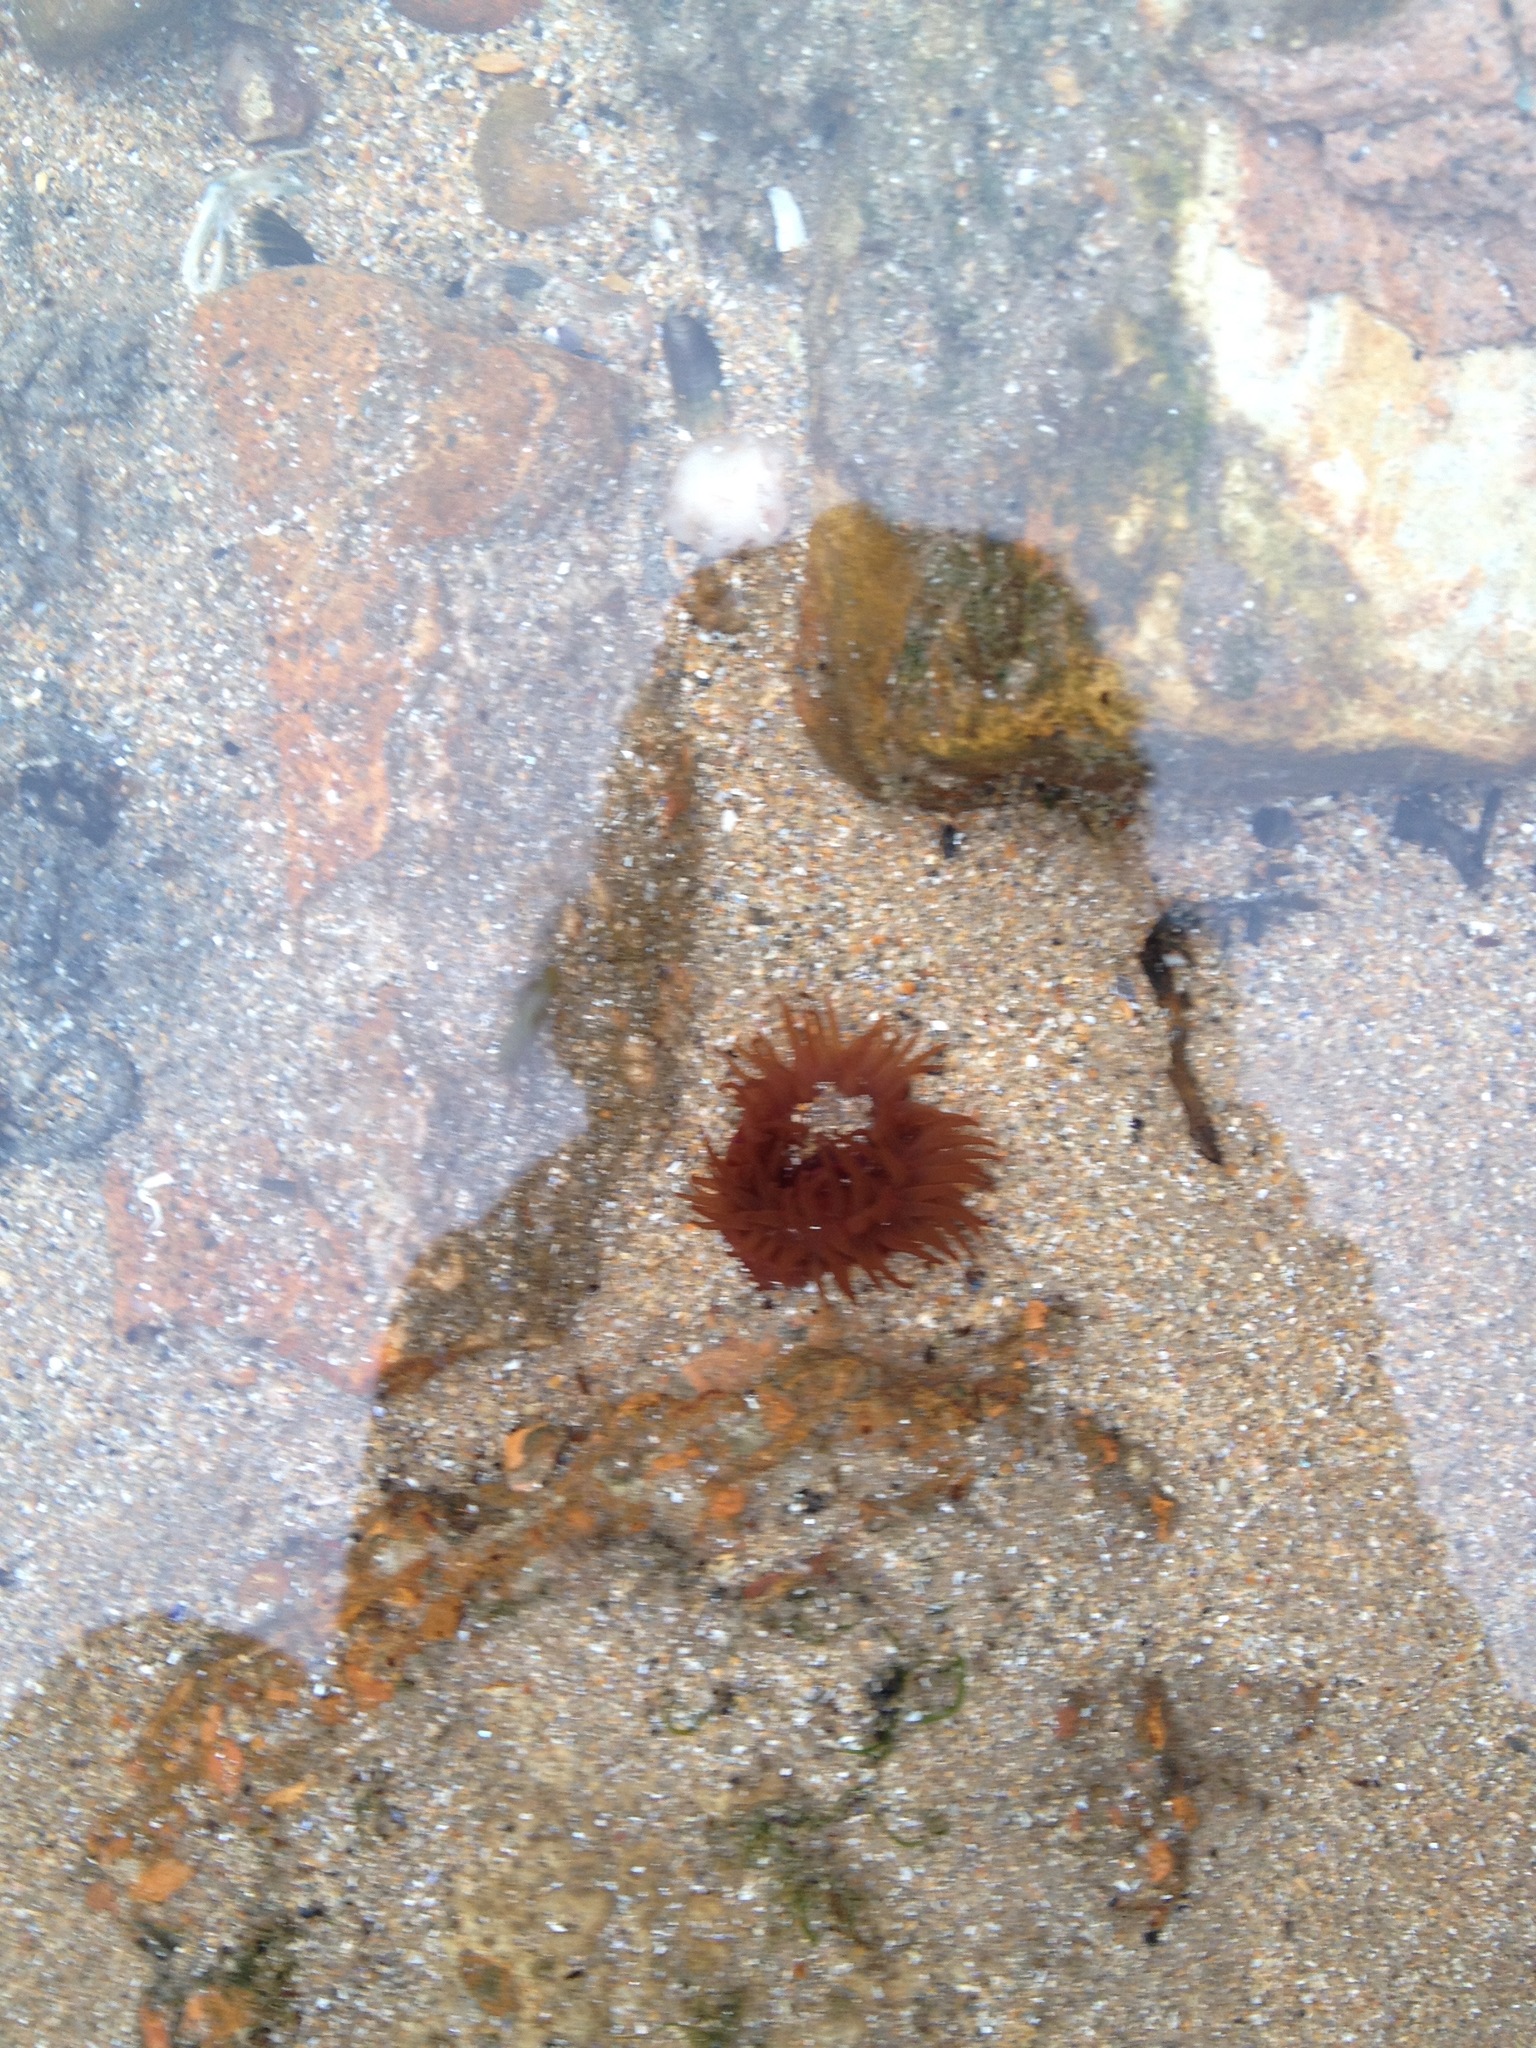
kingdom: Animalia
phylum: Cnidaria
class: Anthozoa
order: Actiniaria
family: Actiniidae
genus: Actinia
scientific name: Actinia equina
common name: Beadlet anemone
